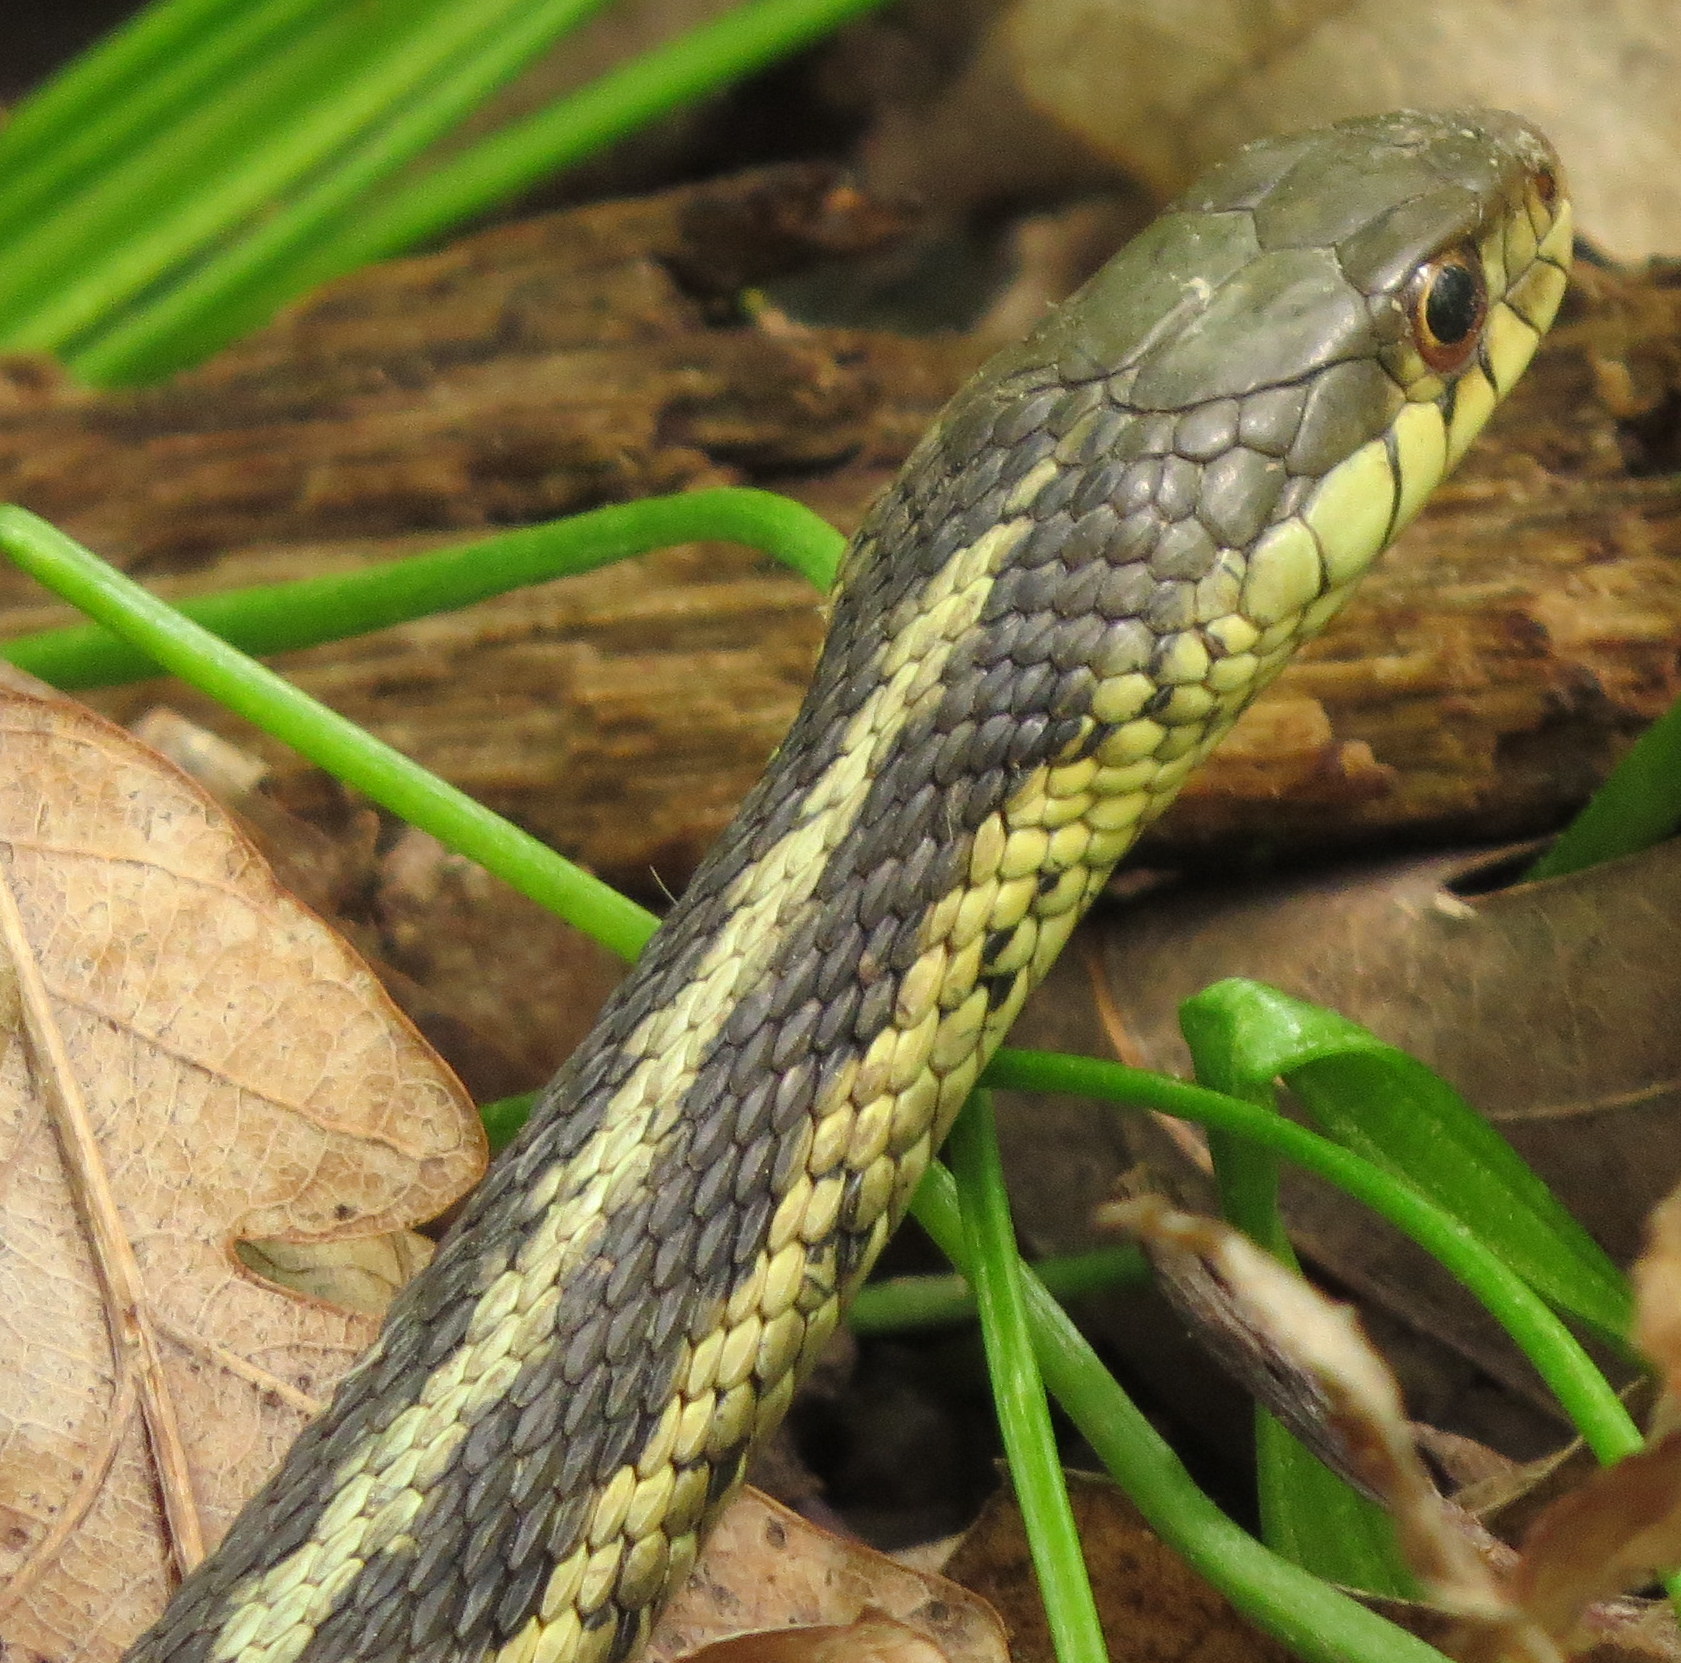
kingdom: Animalia
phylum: Chordata
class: Squamata
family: Colubridae
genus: Thamnophis
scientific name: Thamnophis sirtalis
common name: Common garter snake
